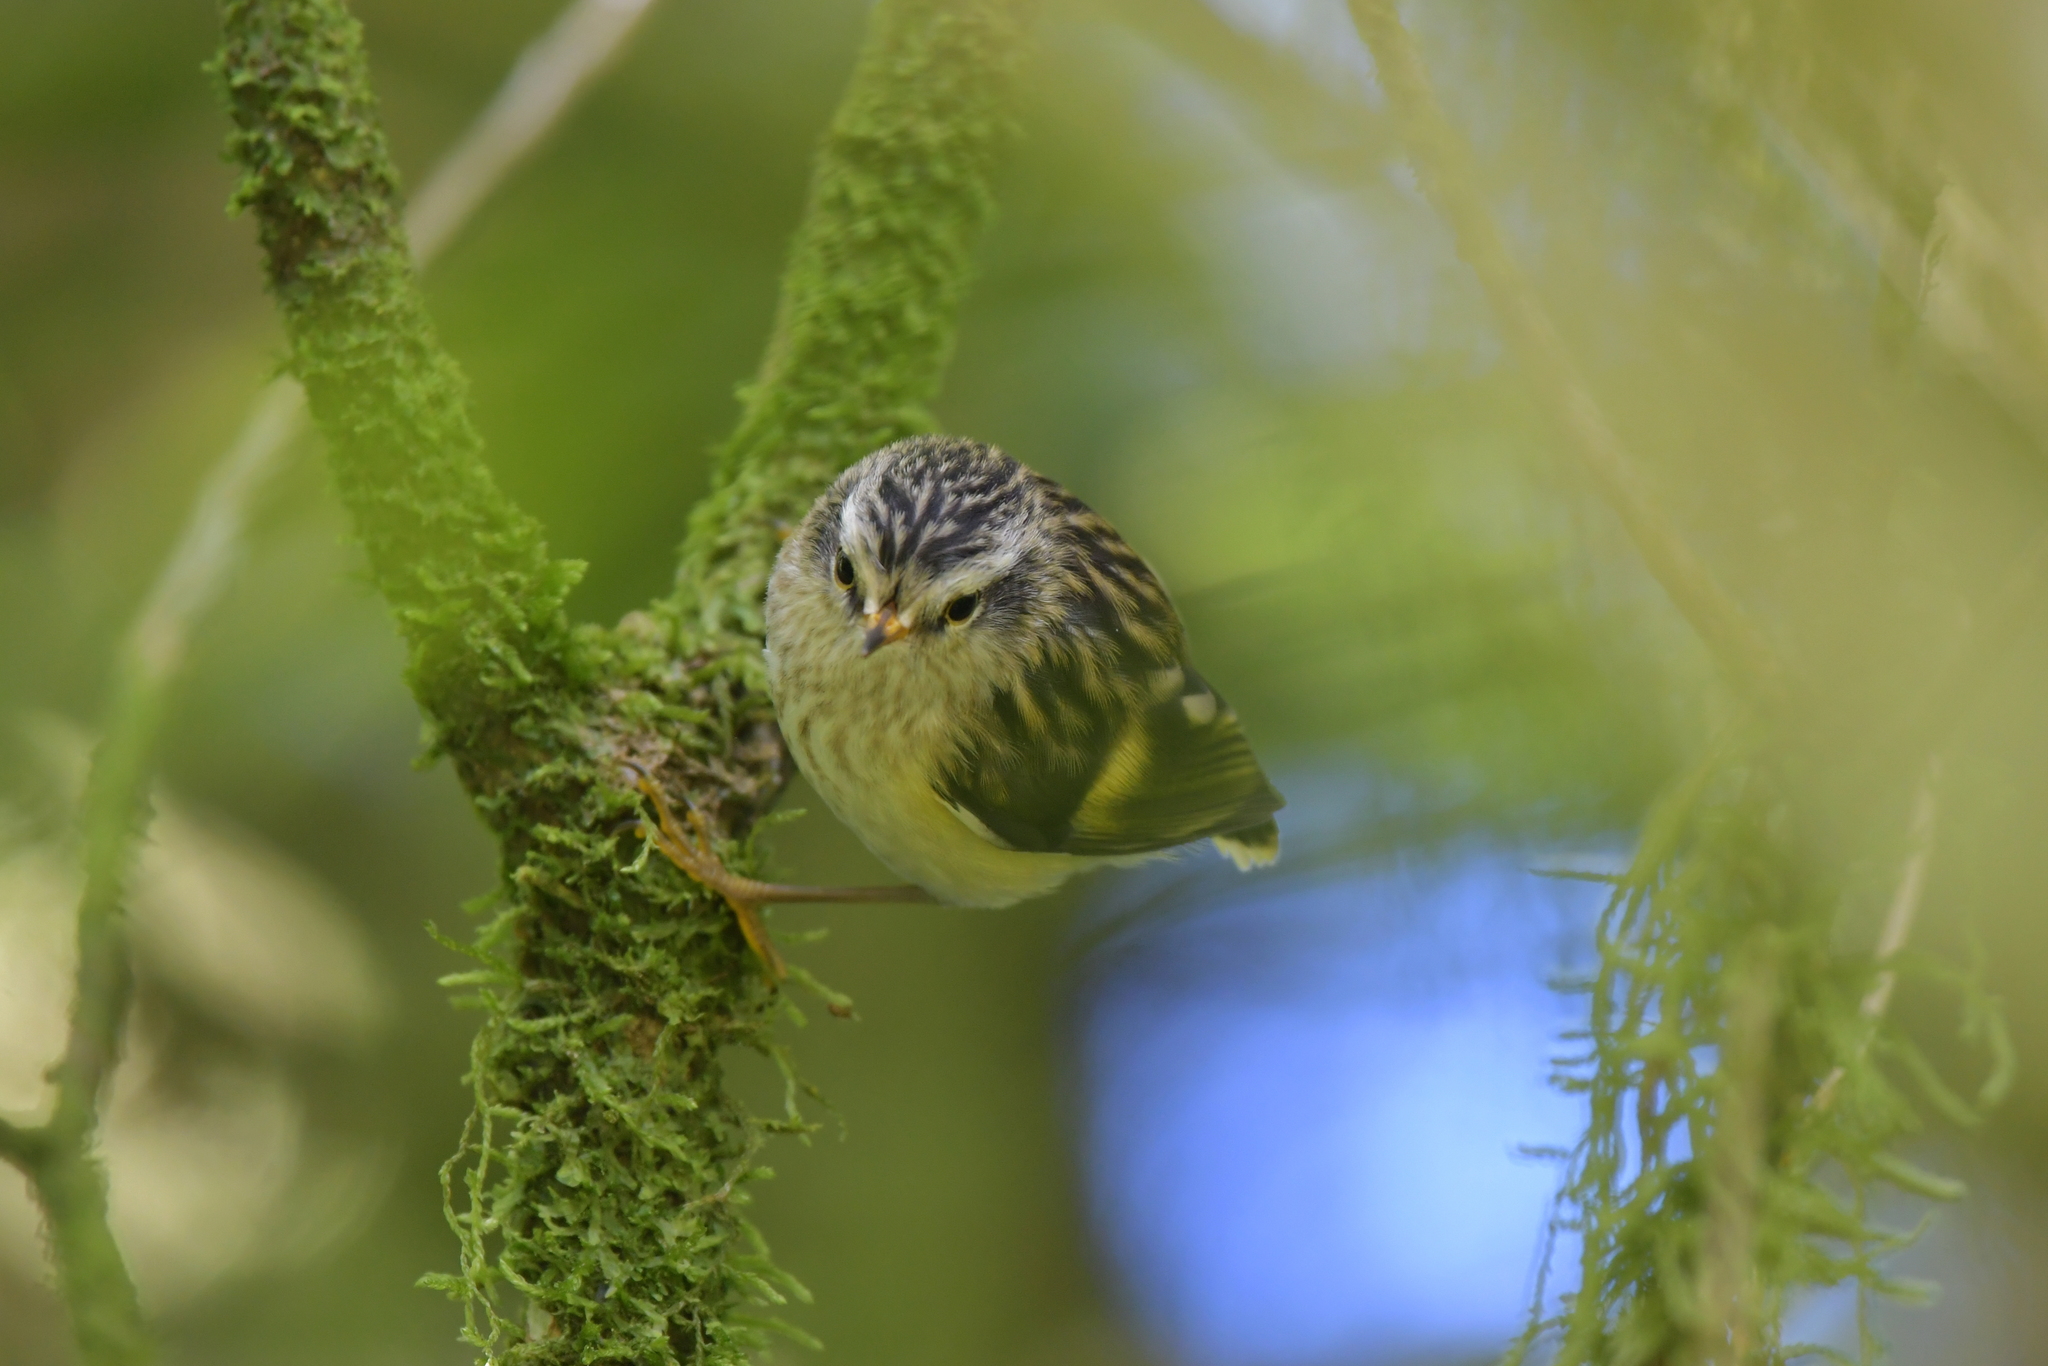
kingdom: Animalia
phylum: Chordata
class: Aves
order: Passeriformes
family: Acanthisittidae
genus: Acanthisitta
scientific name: Acanthisitta chloris
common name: Rifleman
